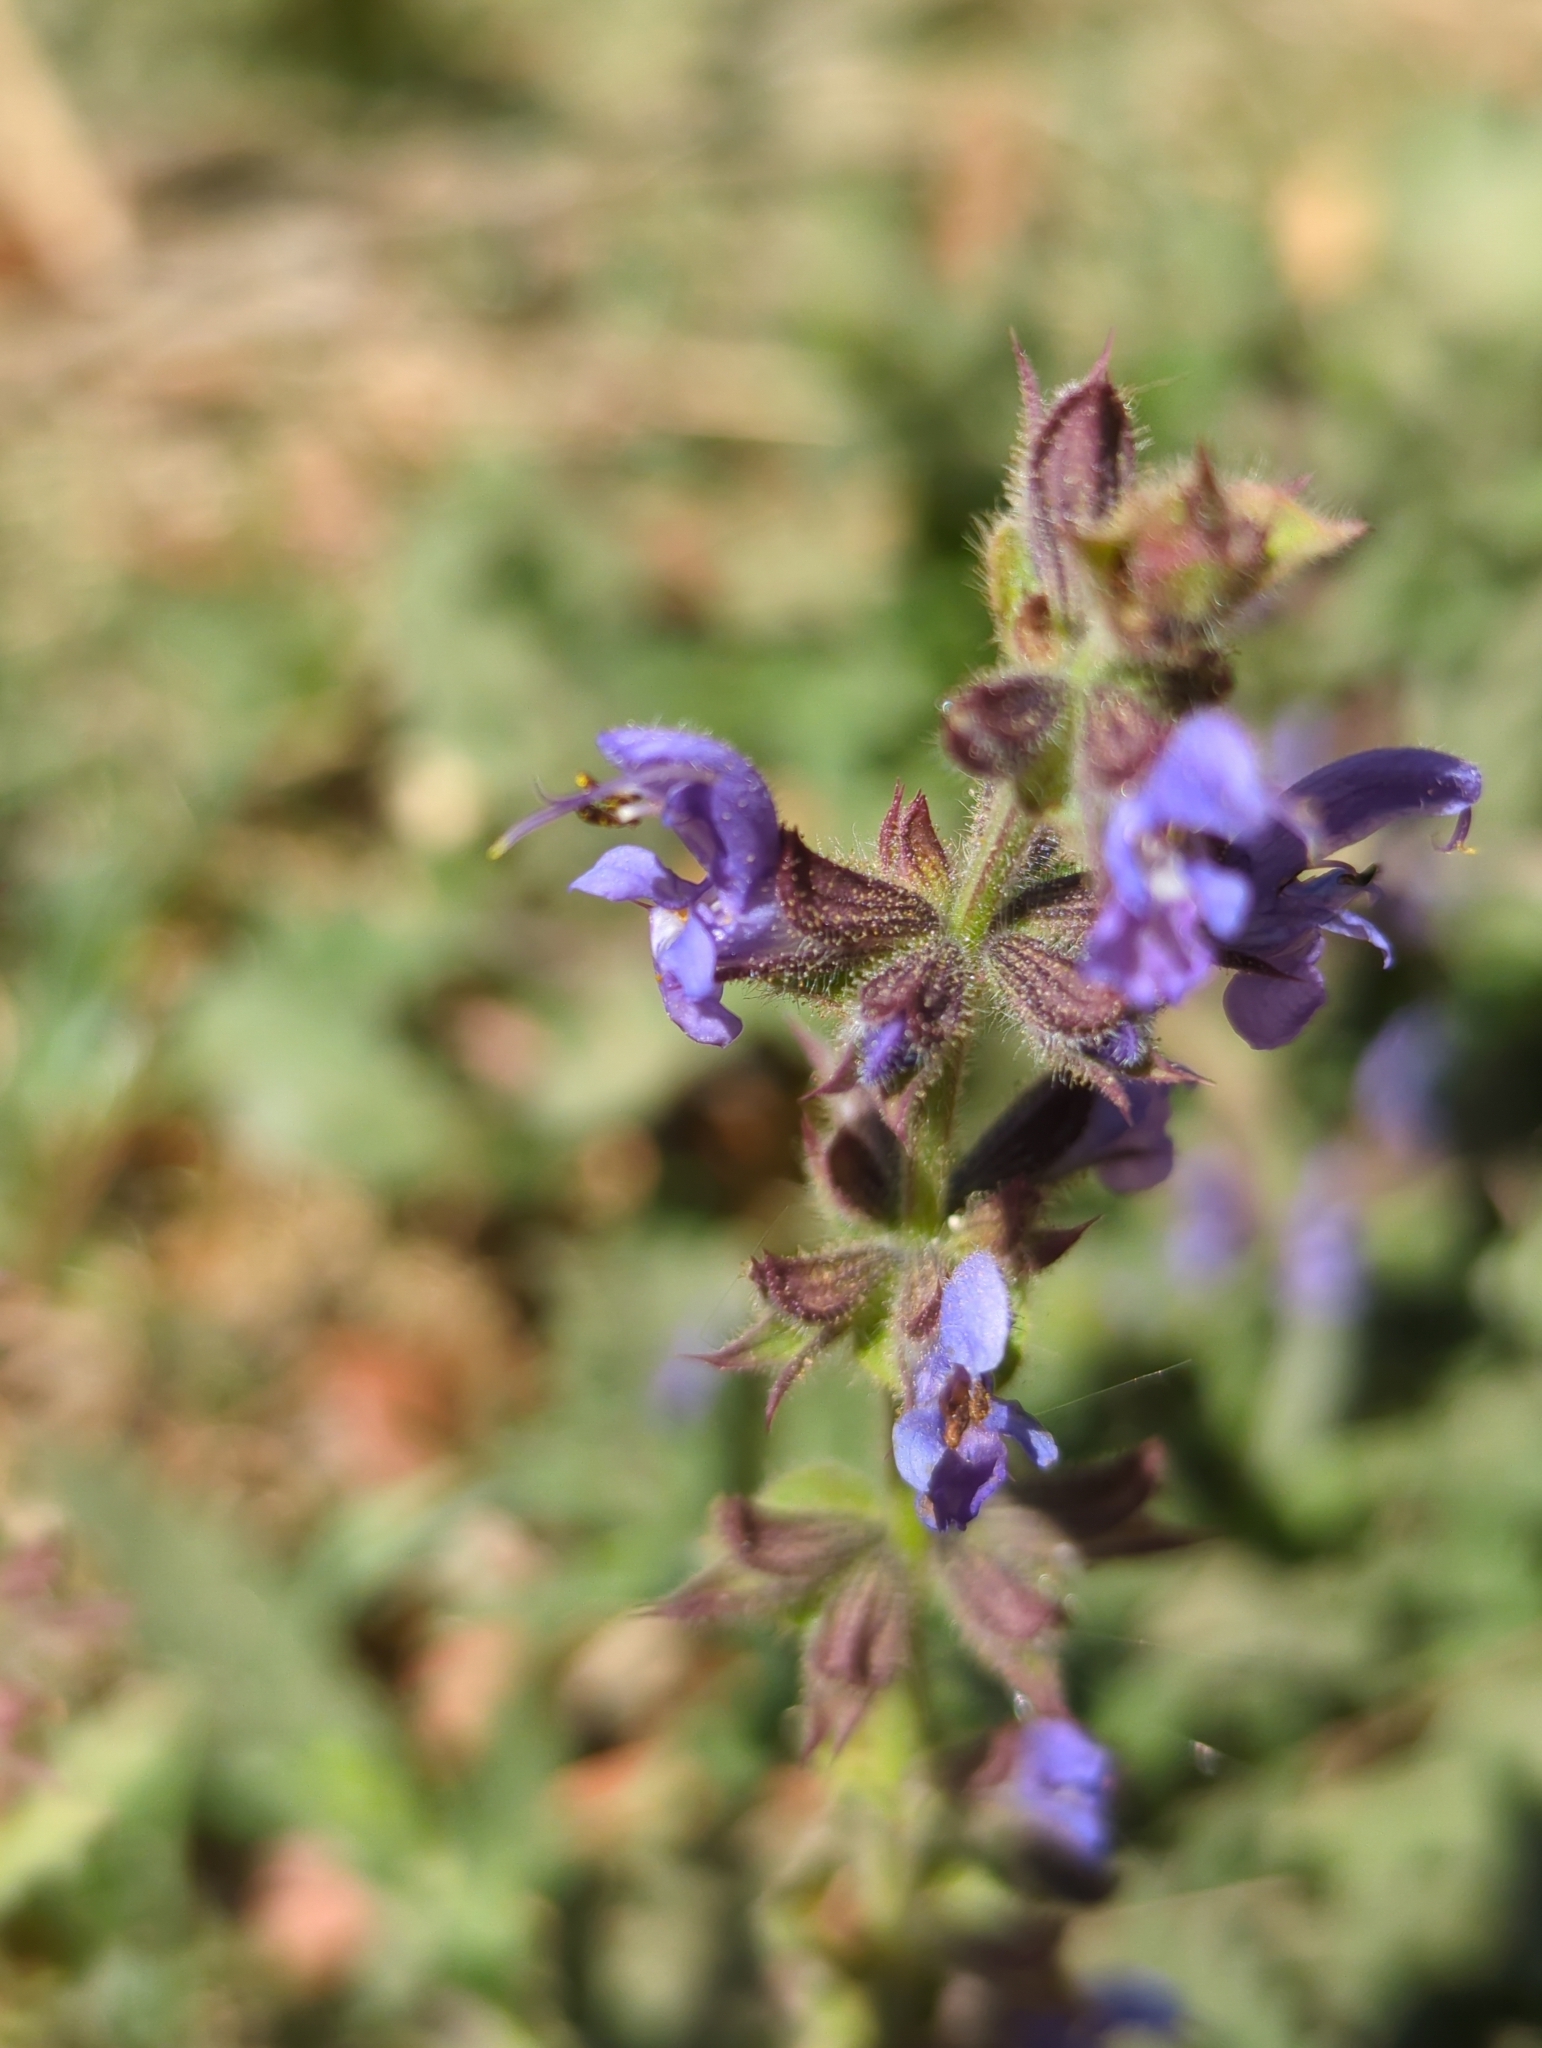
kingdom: Plantae
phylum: Tracheophyta
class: Magnoliopsida
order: Lamiales
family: Lamiaceae
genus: Salvia
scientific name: Salvia verbenaca
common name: Wild clary
